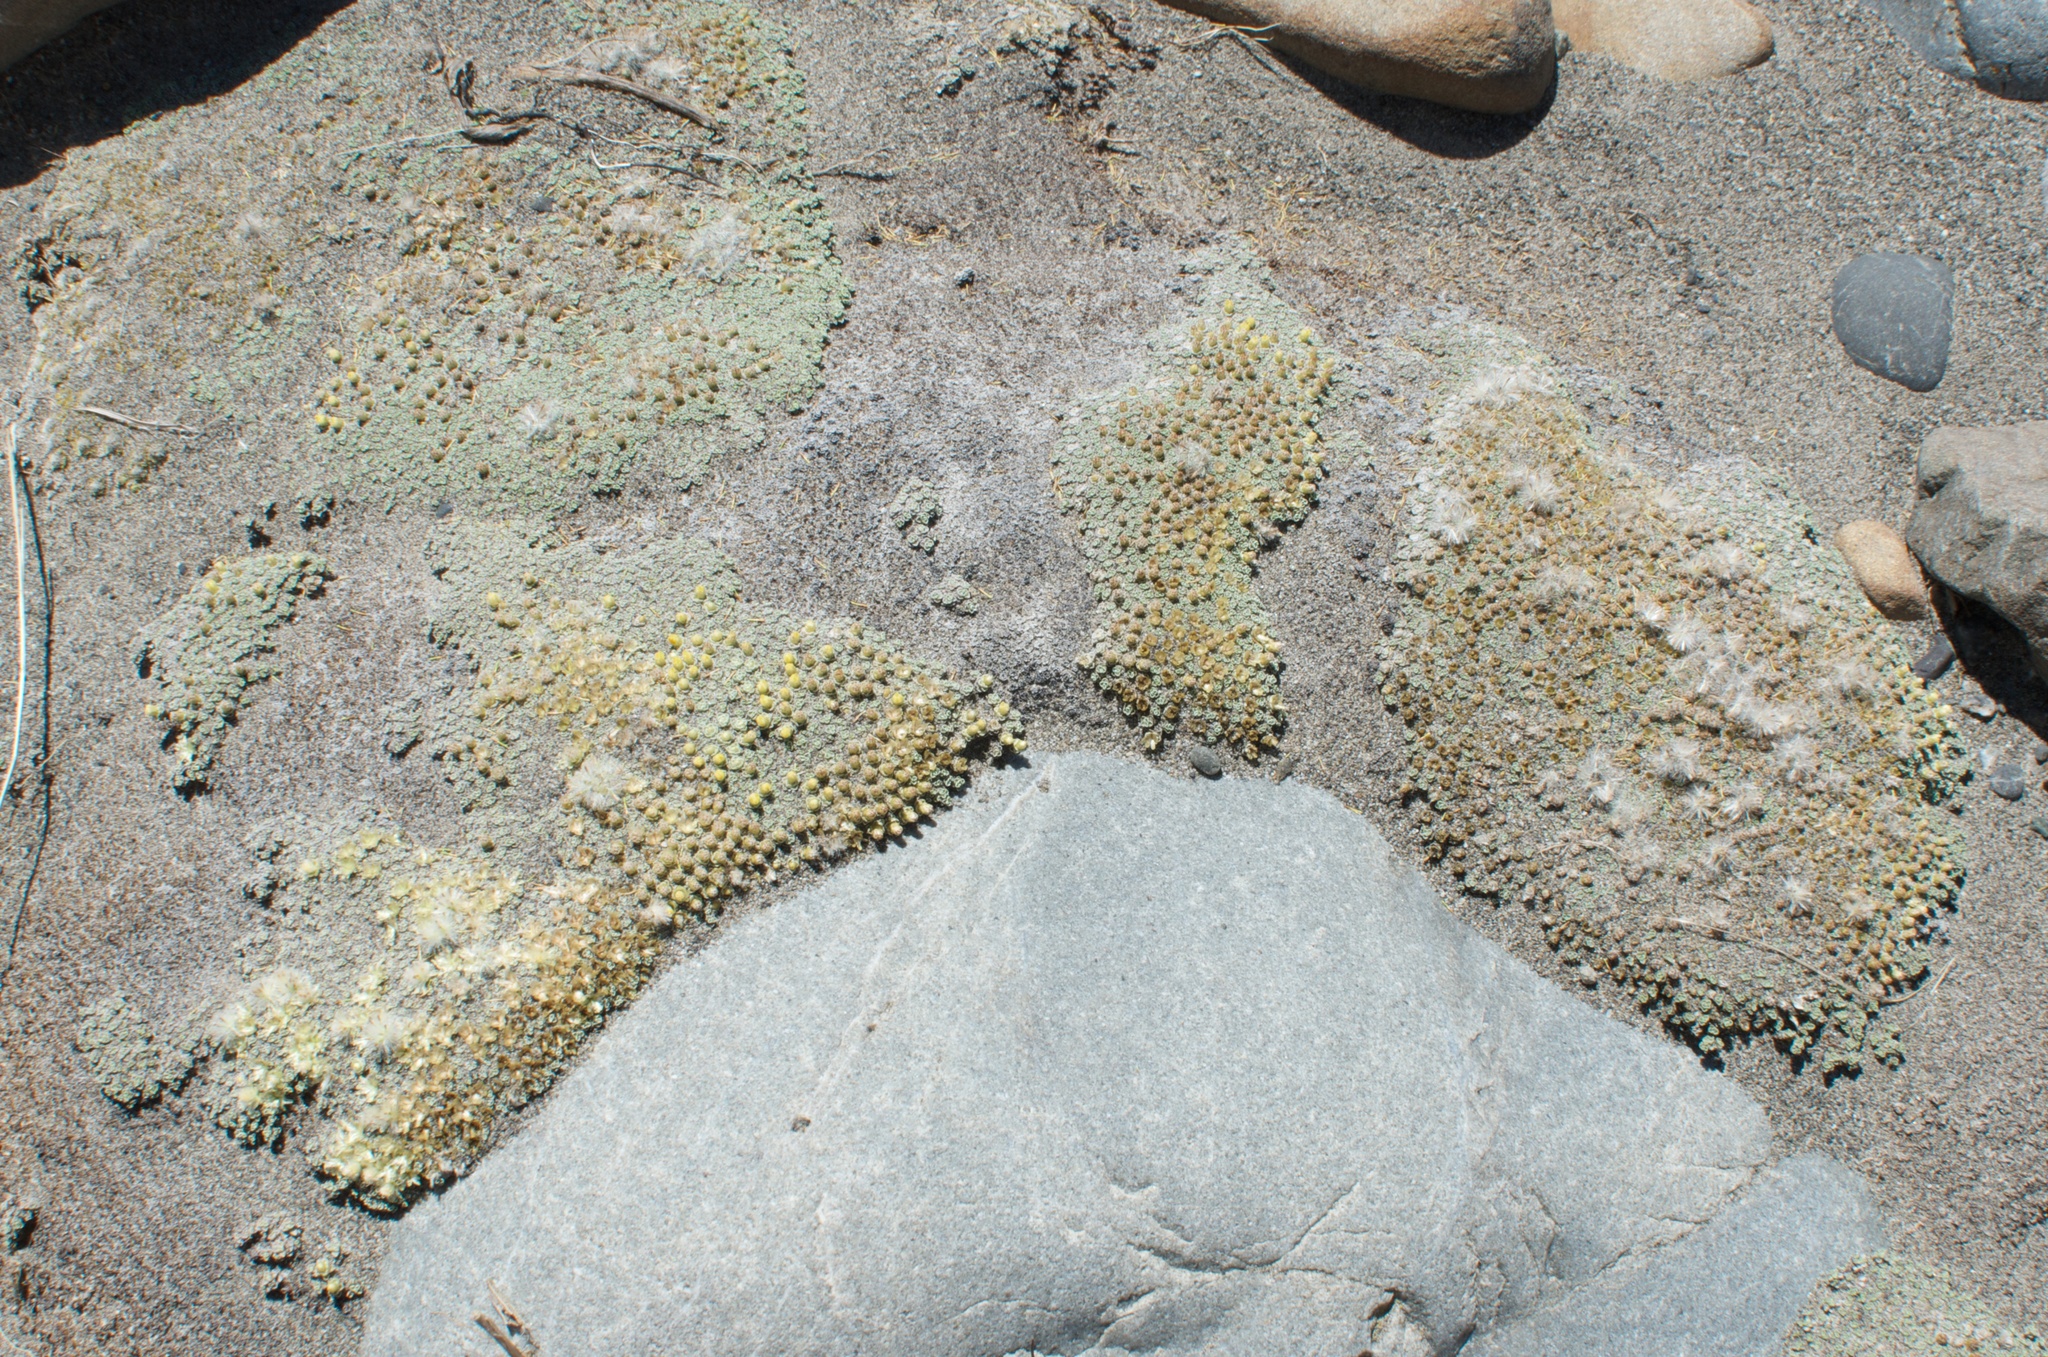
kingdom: Plantae
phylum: Tracheophyta
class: Magnoliopsida
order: Asterales
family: Asteraceae
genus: Raoulia
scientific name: Raoulia australis
